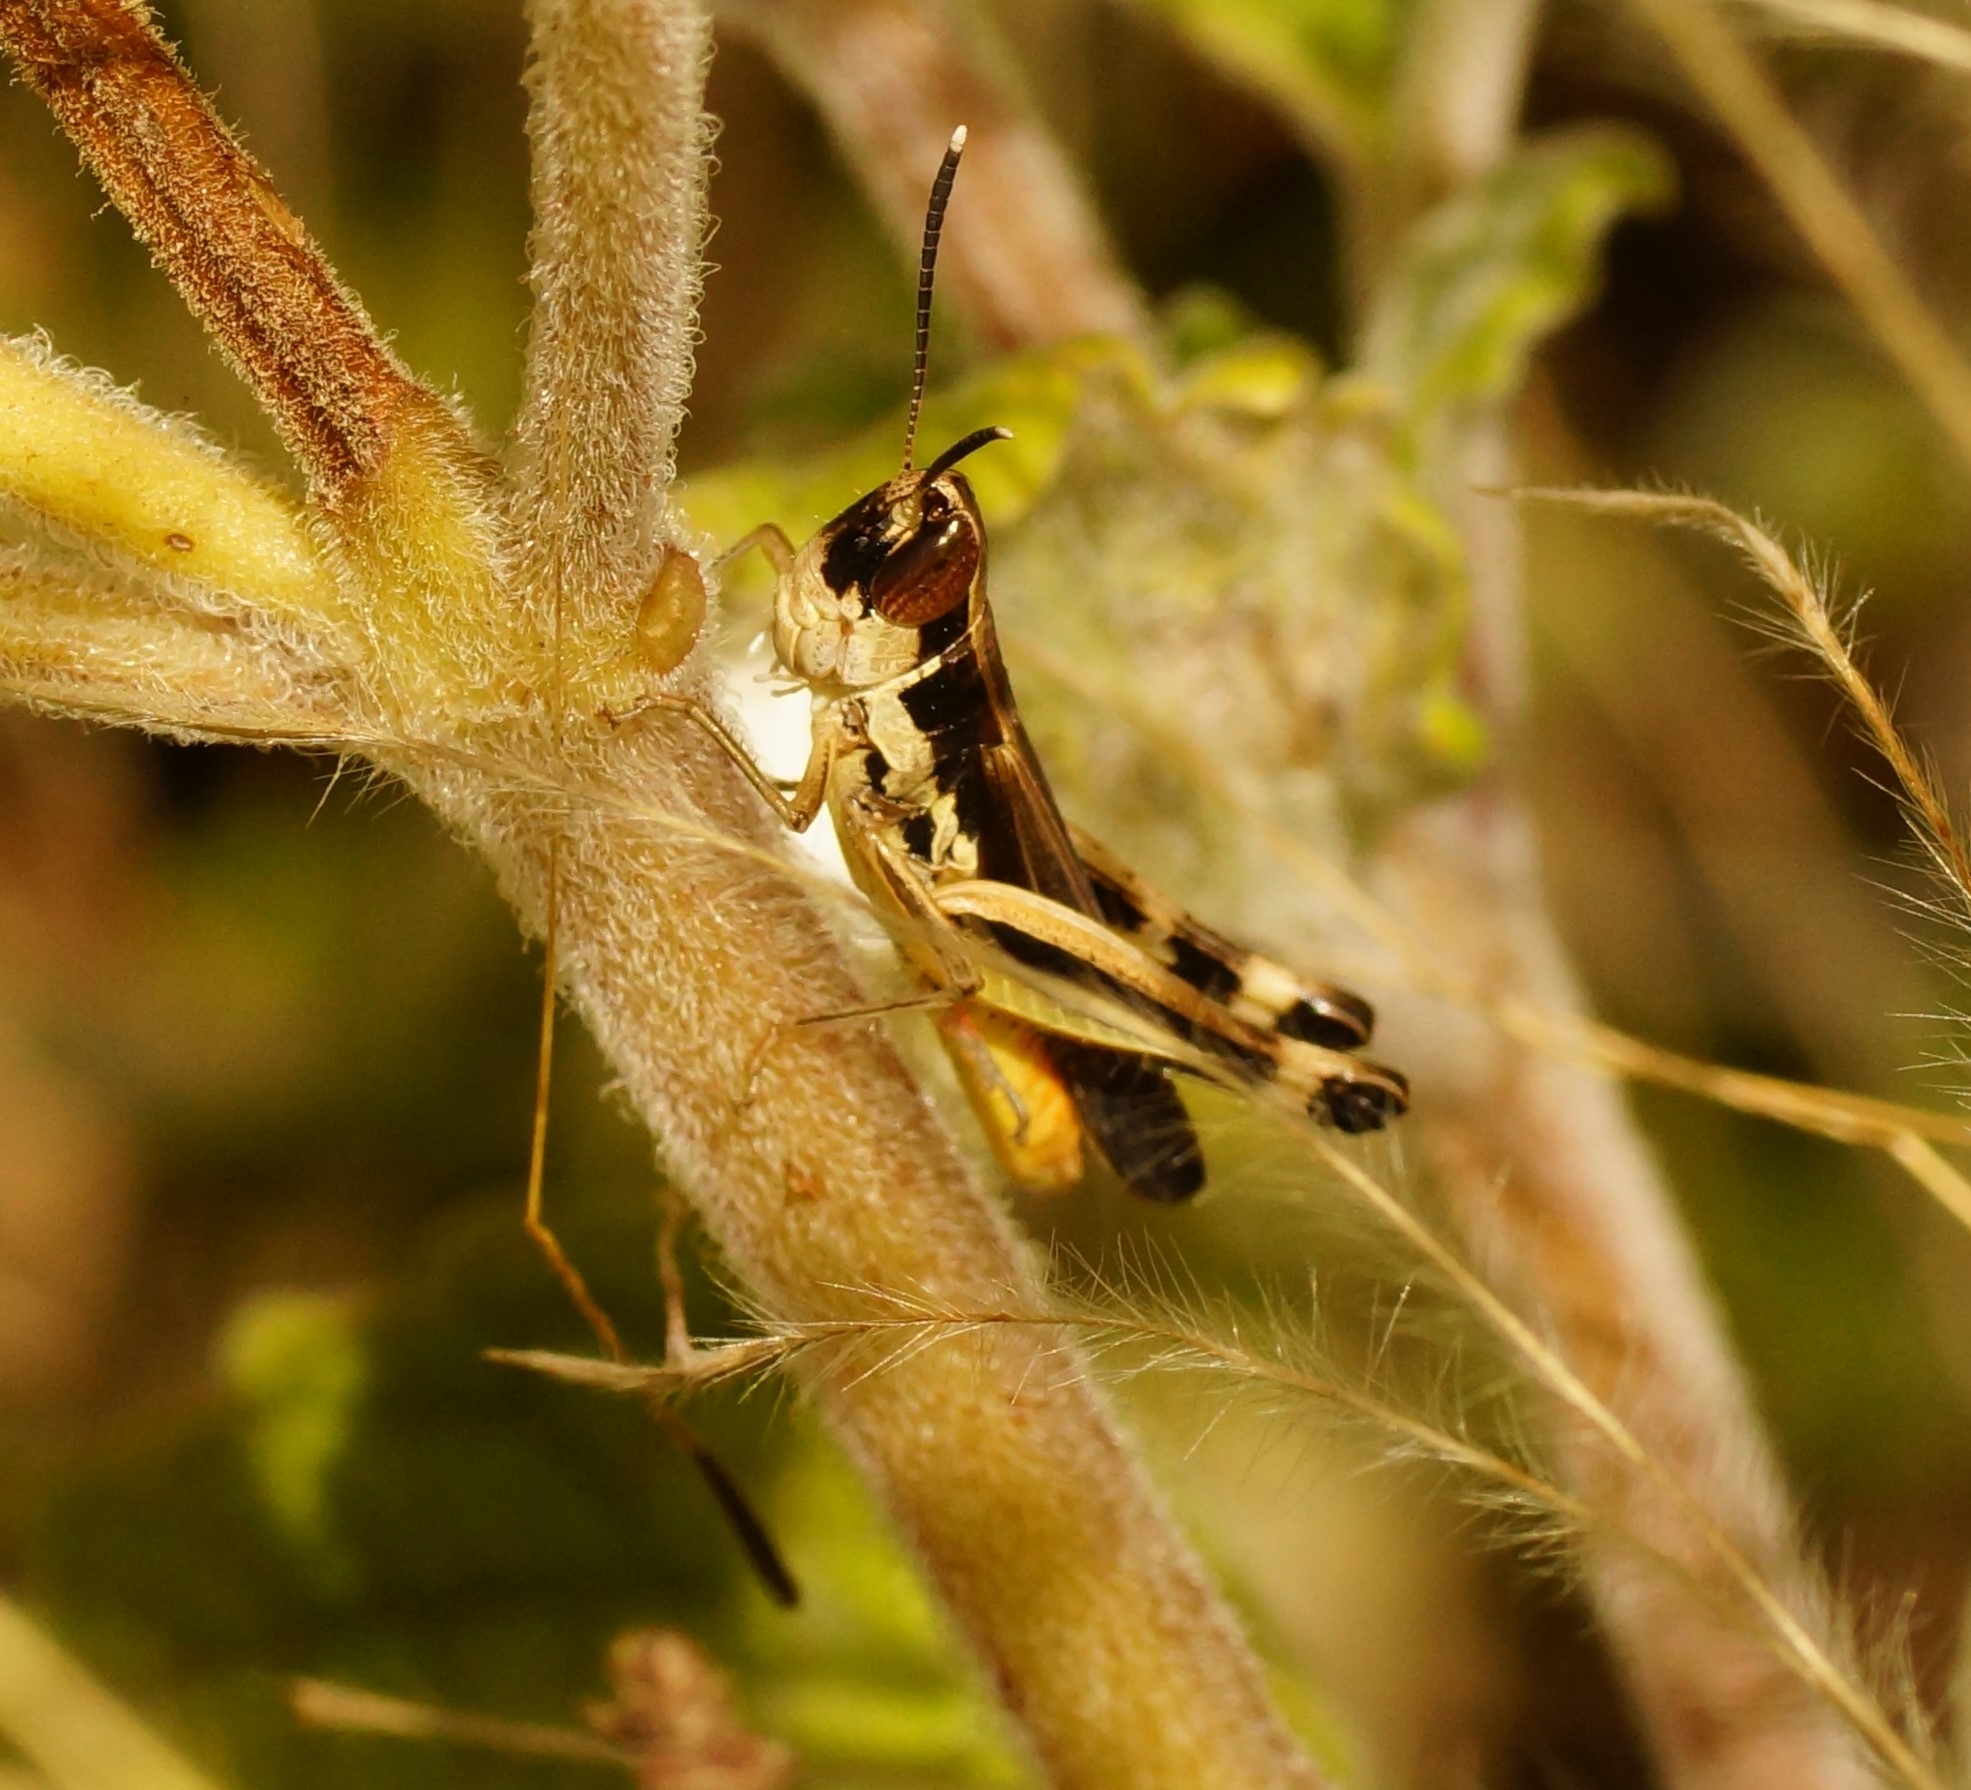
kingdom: Animalia
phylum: Arthropoda
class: Insecta
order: Orthoptera
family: Acrididae
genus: Macrotona
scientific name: Macrotona australis
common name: Common macrotona
